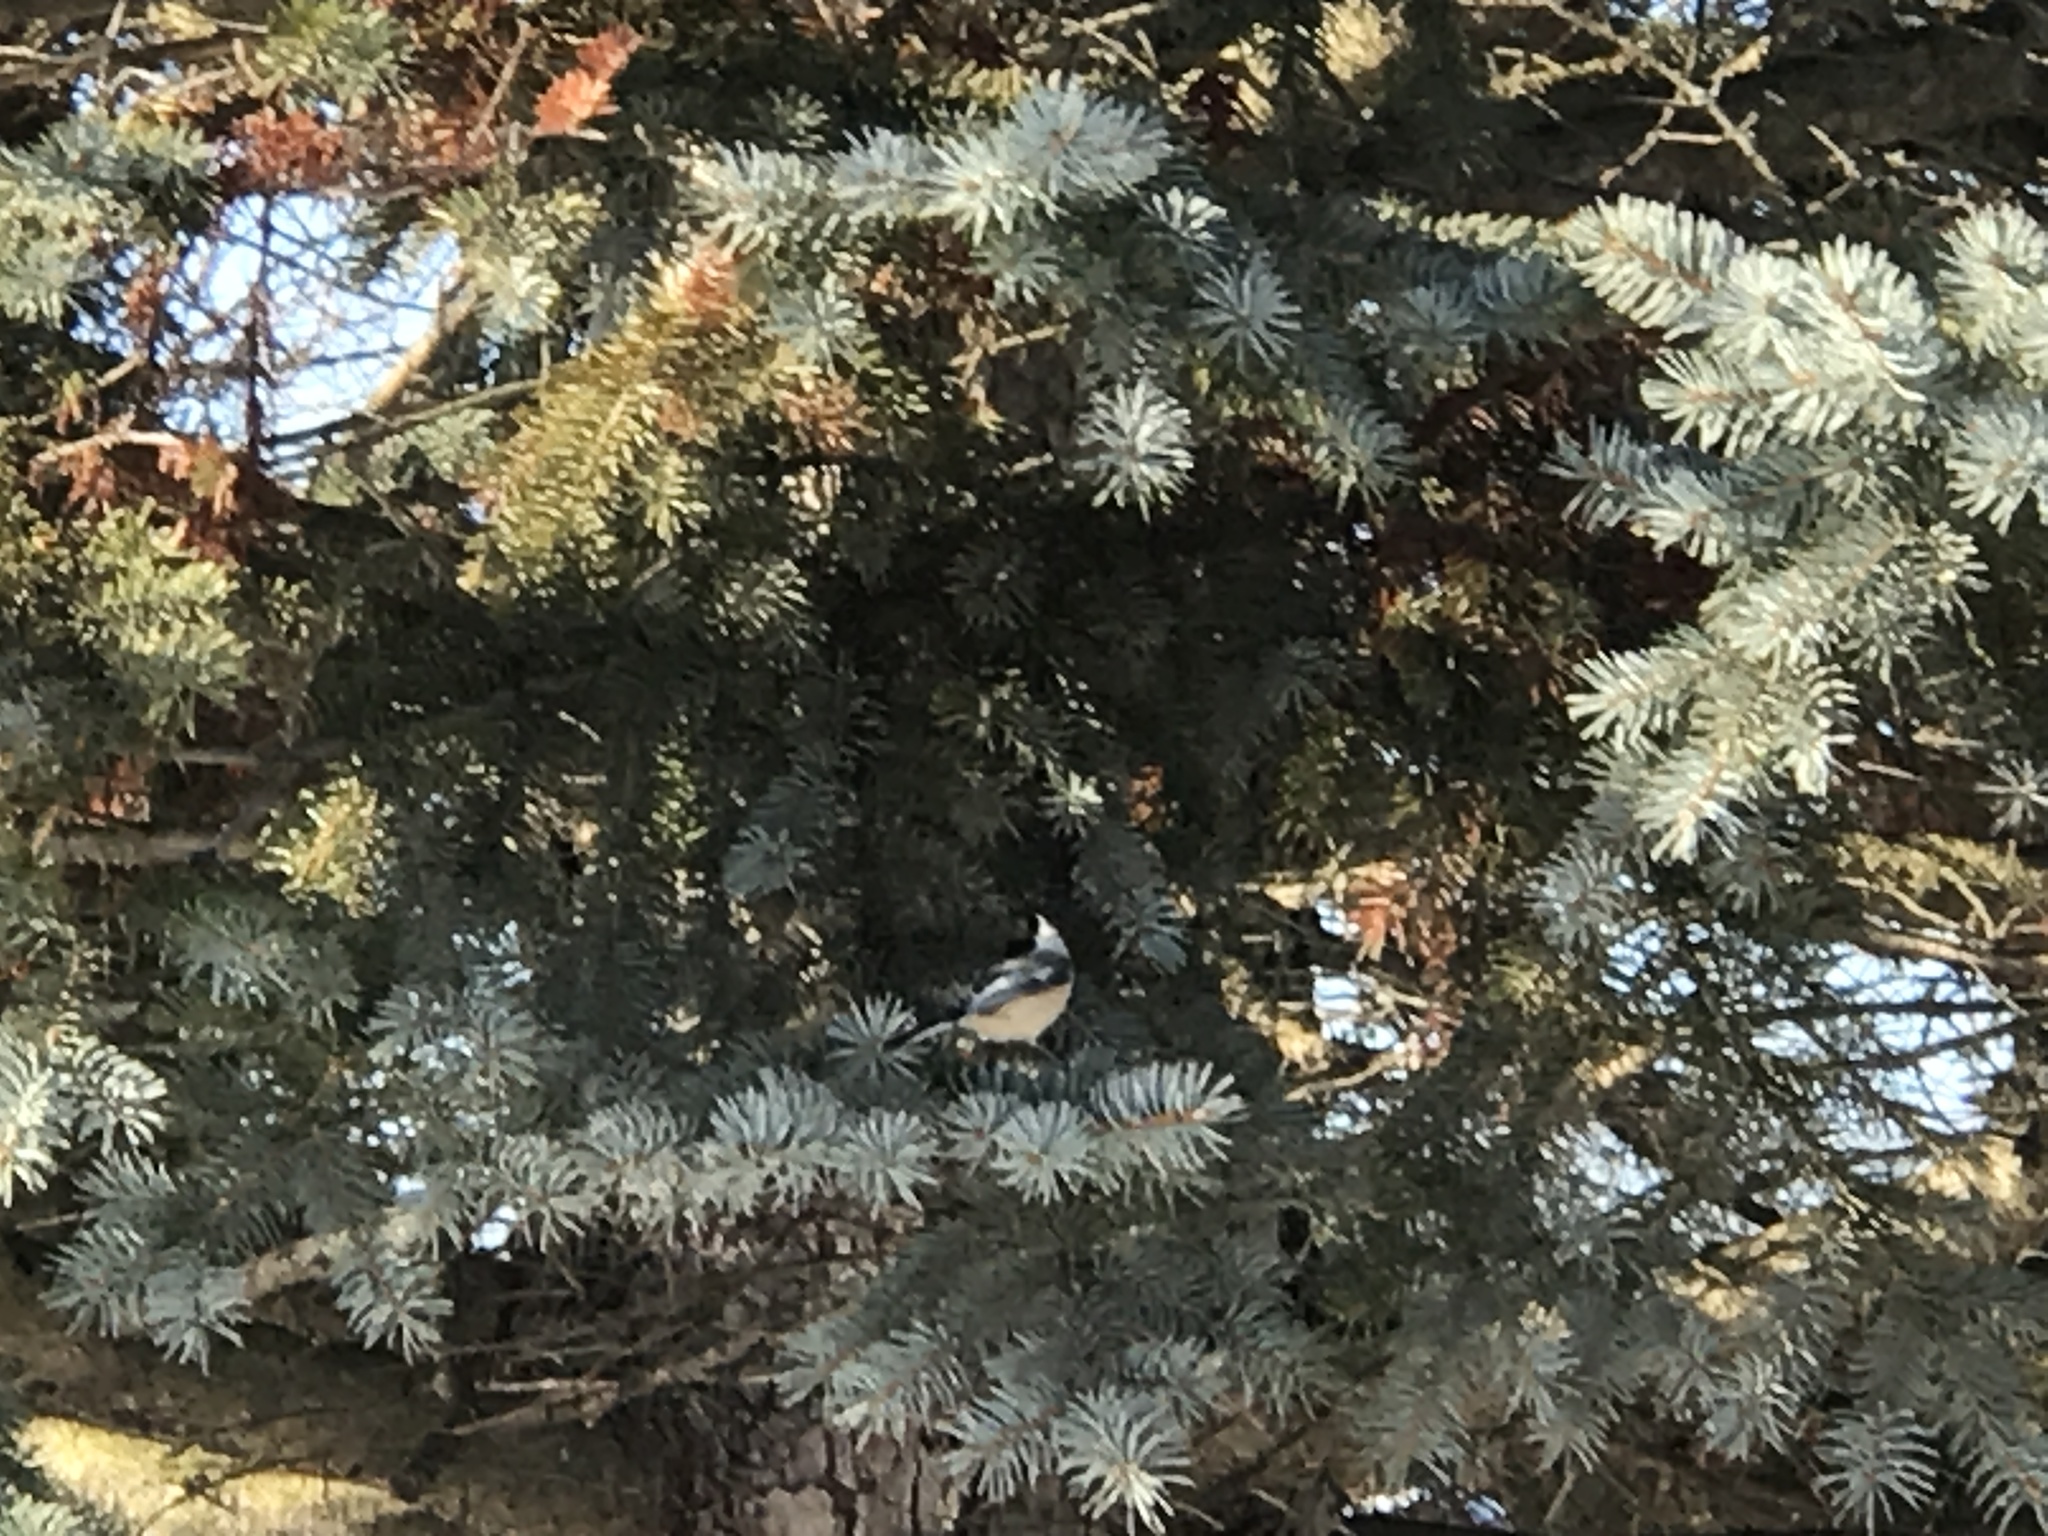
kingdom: Animalia
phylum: Chordata
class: Aves
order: Passeriformes
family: Paridae
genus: Poecile
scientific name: Poecile atricapillus
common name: Black-capped chickadee
